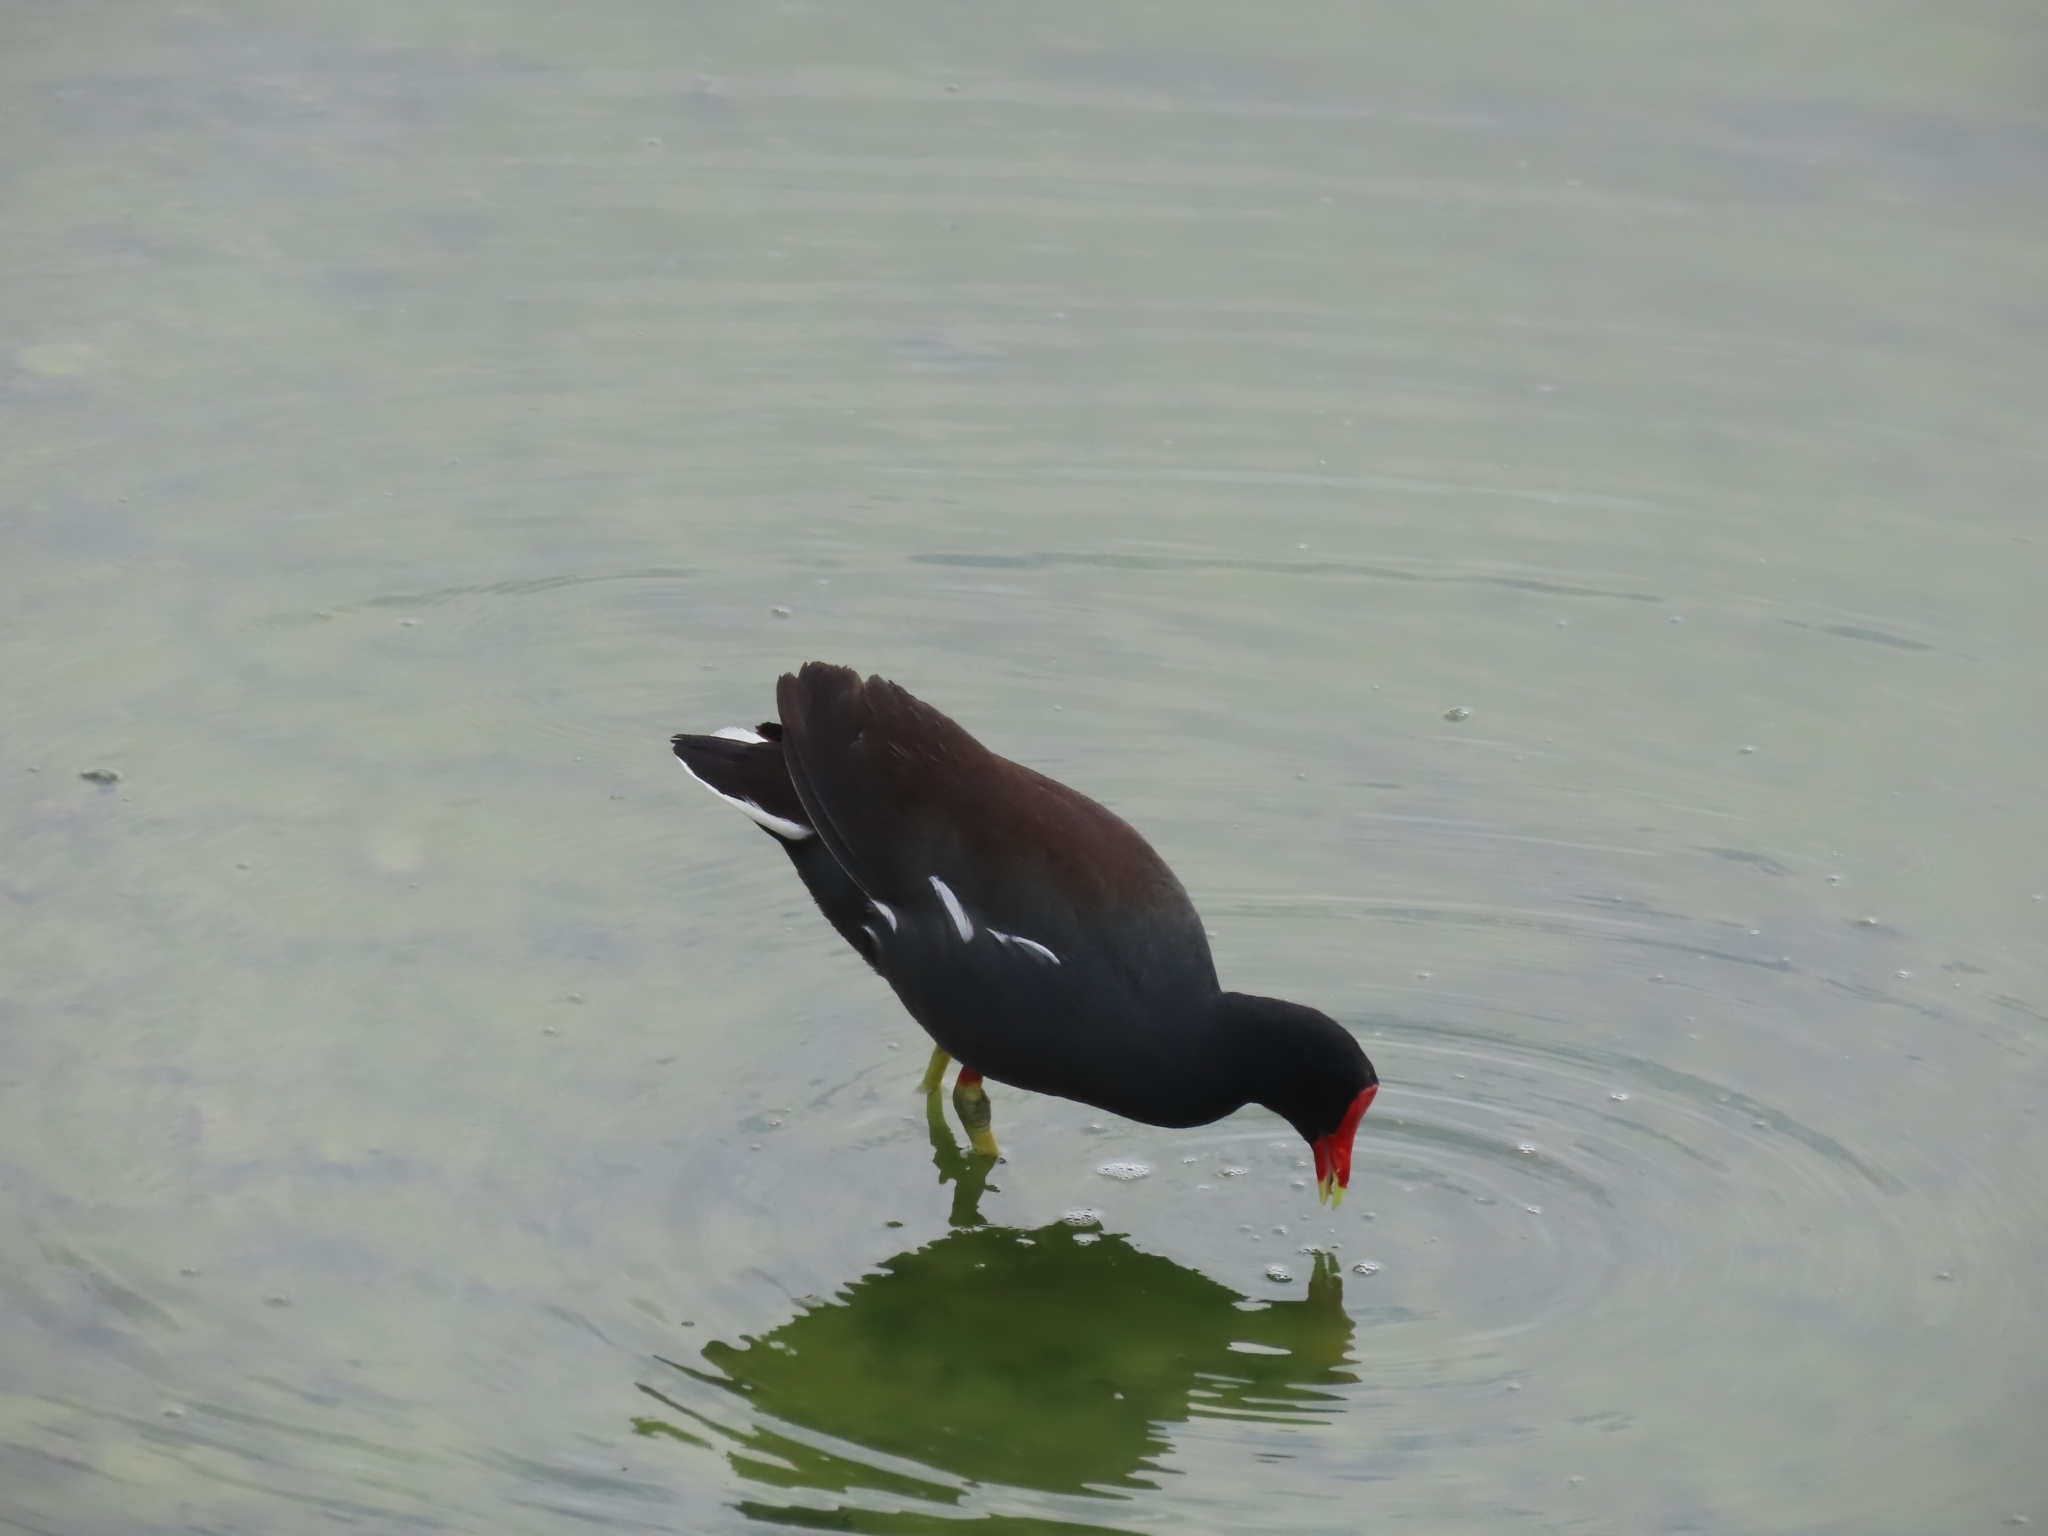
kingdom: Animalia
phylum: Chordata
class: Aves
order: Gruiformes
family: Rallidae
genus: Gallinula
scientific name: Gallinula chloropus
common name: Common moorhen
